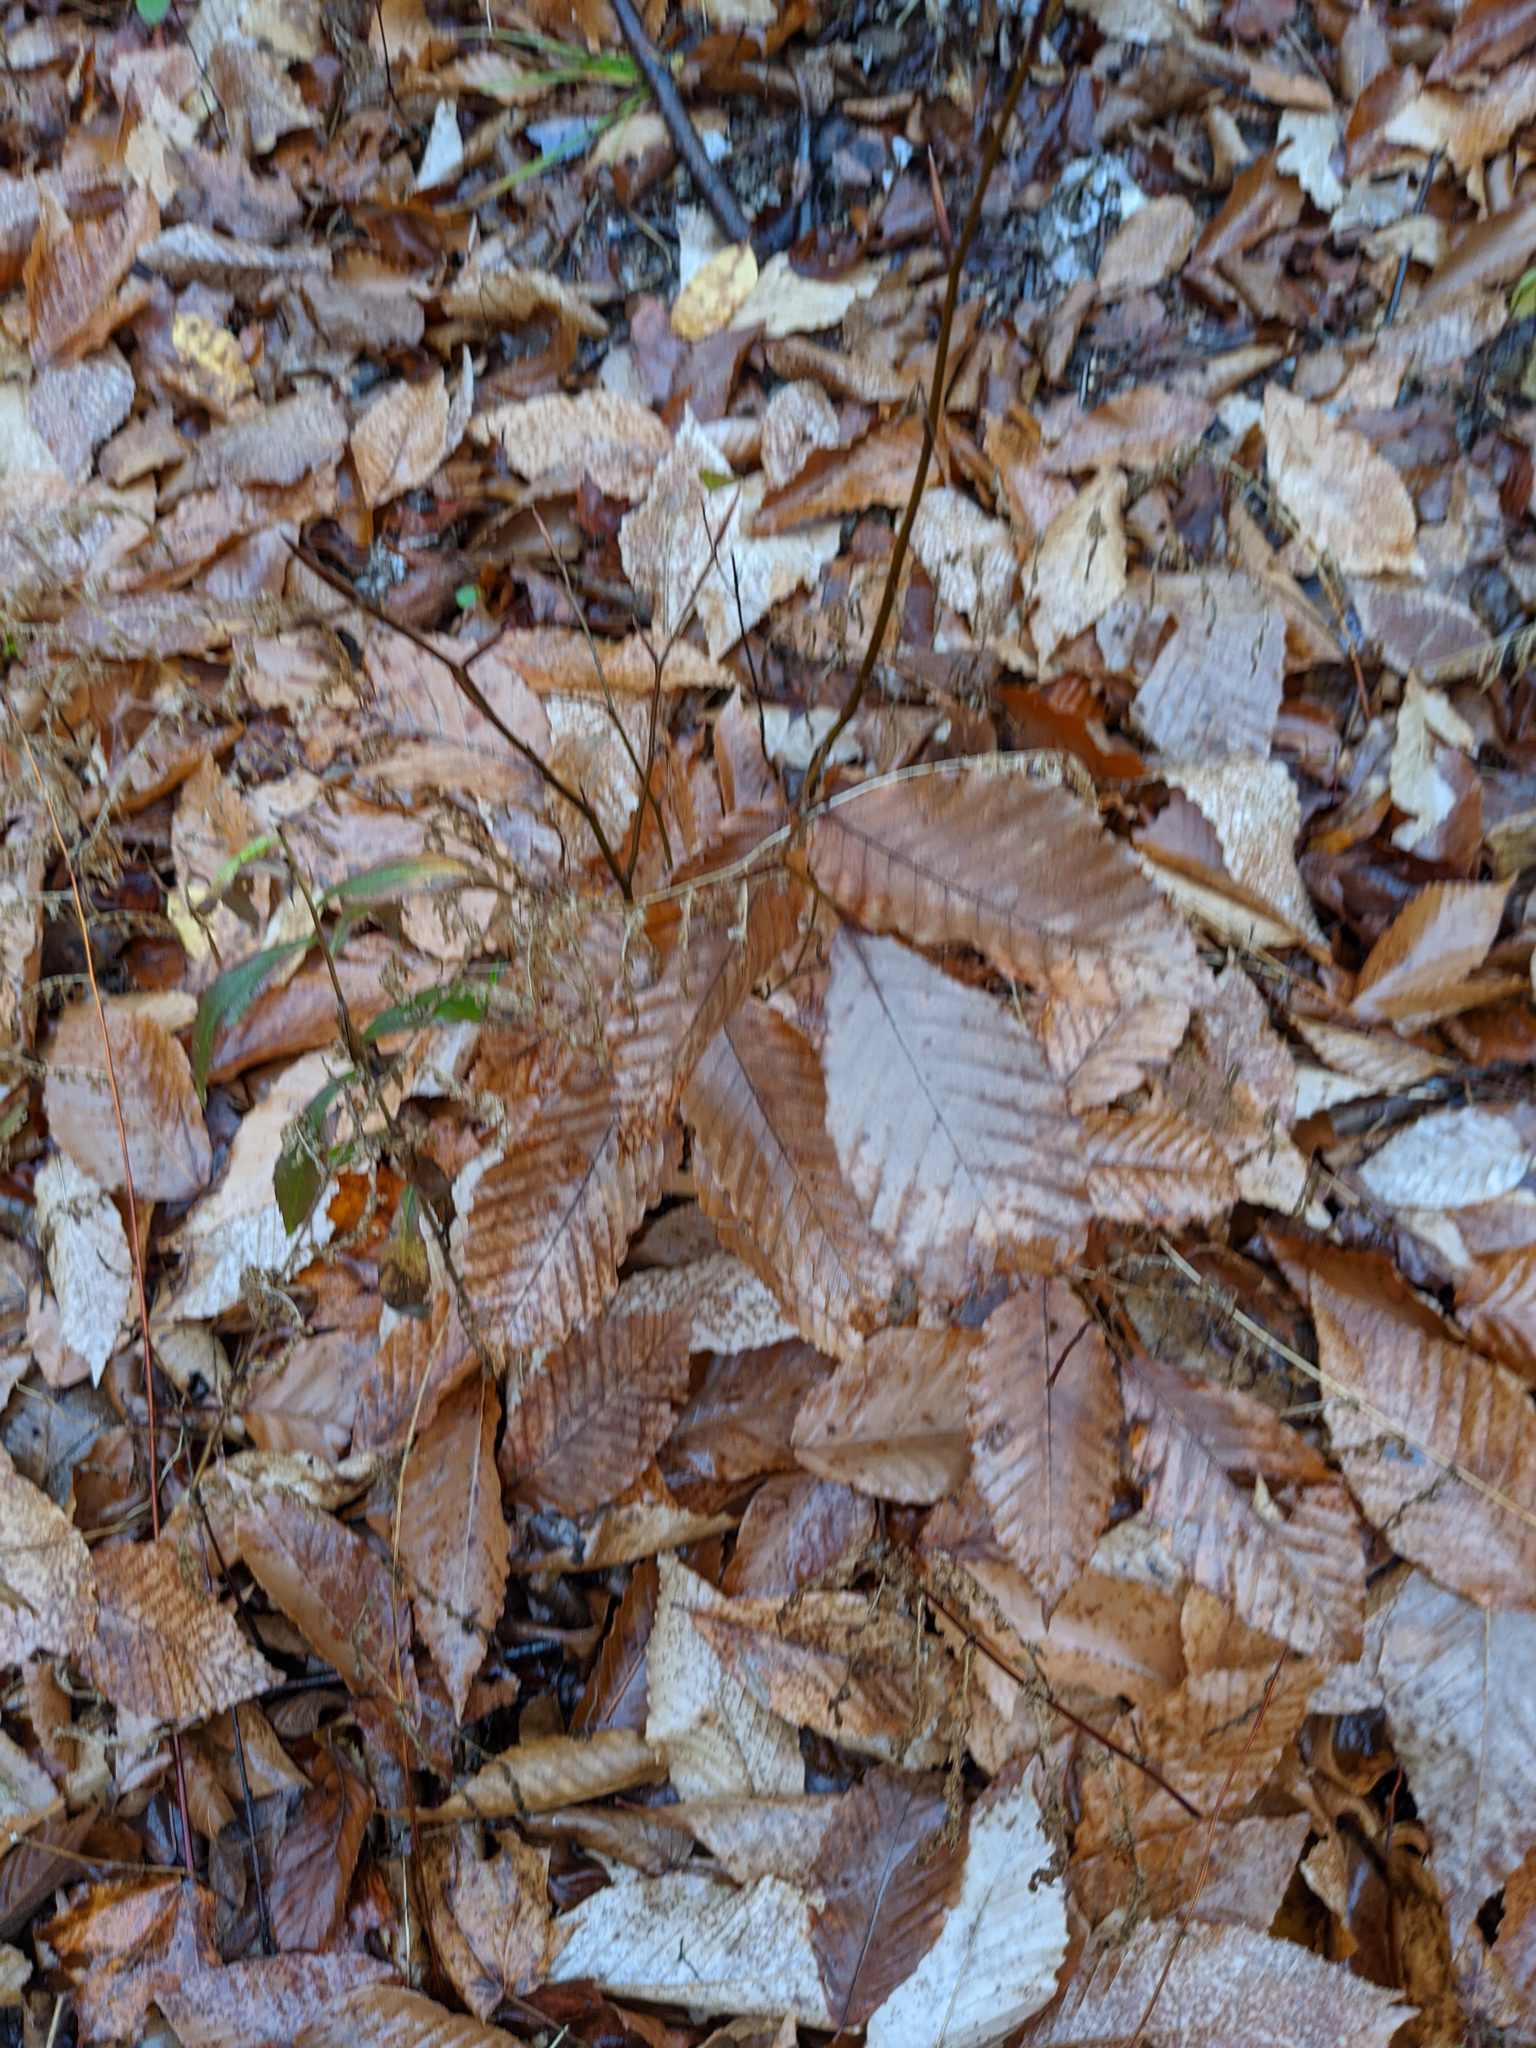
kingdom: Plantae
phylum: Tracheophyta
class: Magnoliopsida
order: Fagales
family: Fagaceae
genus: Fagus
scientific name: Fagus grandifolia
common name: American beech
